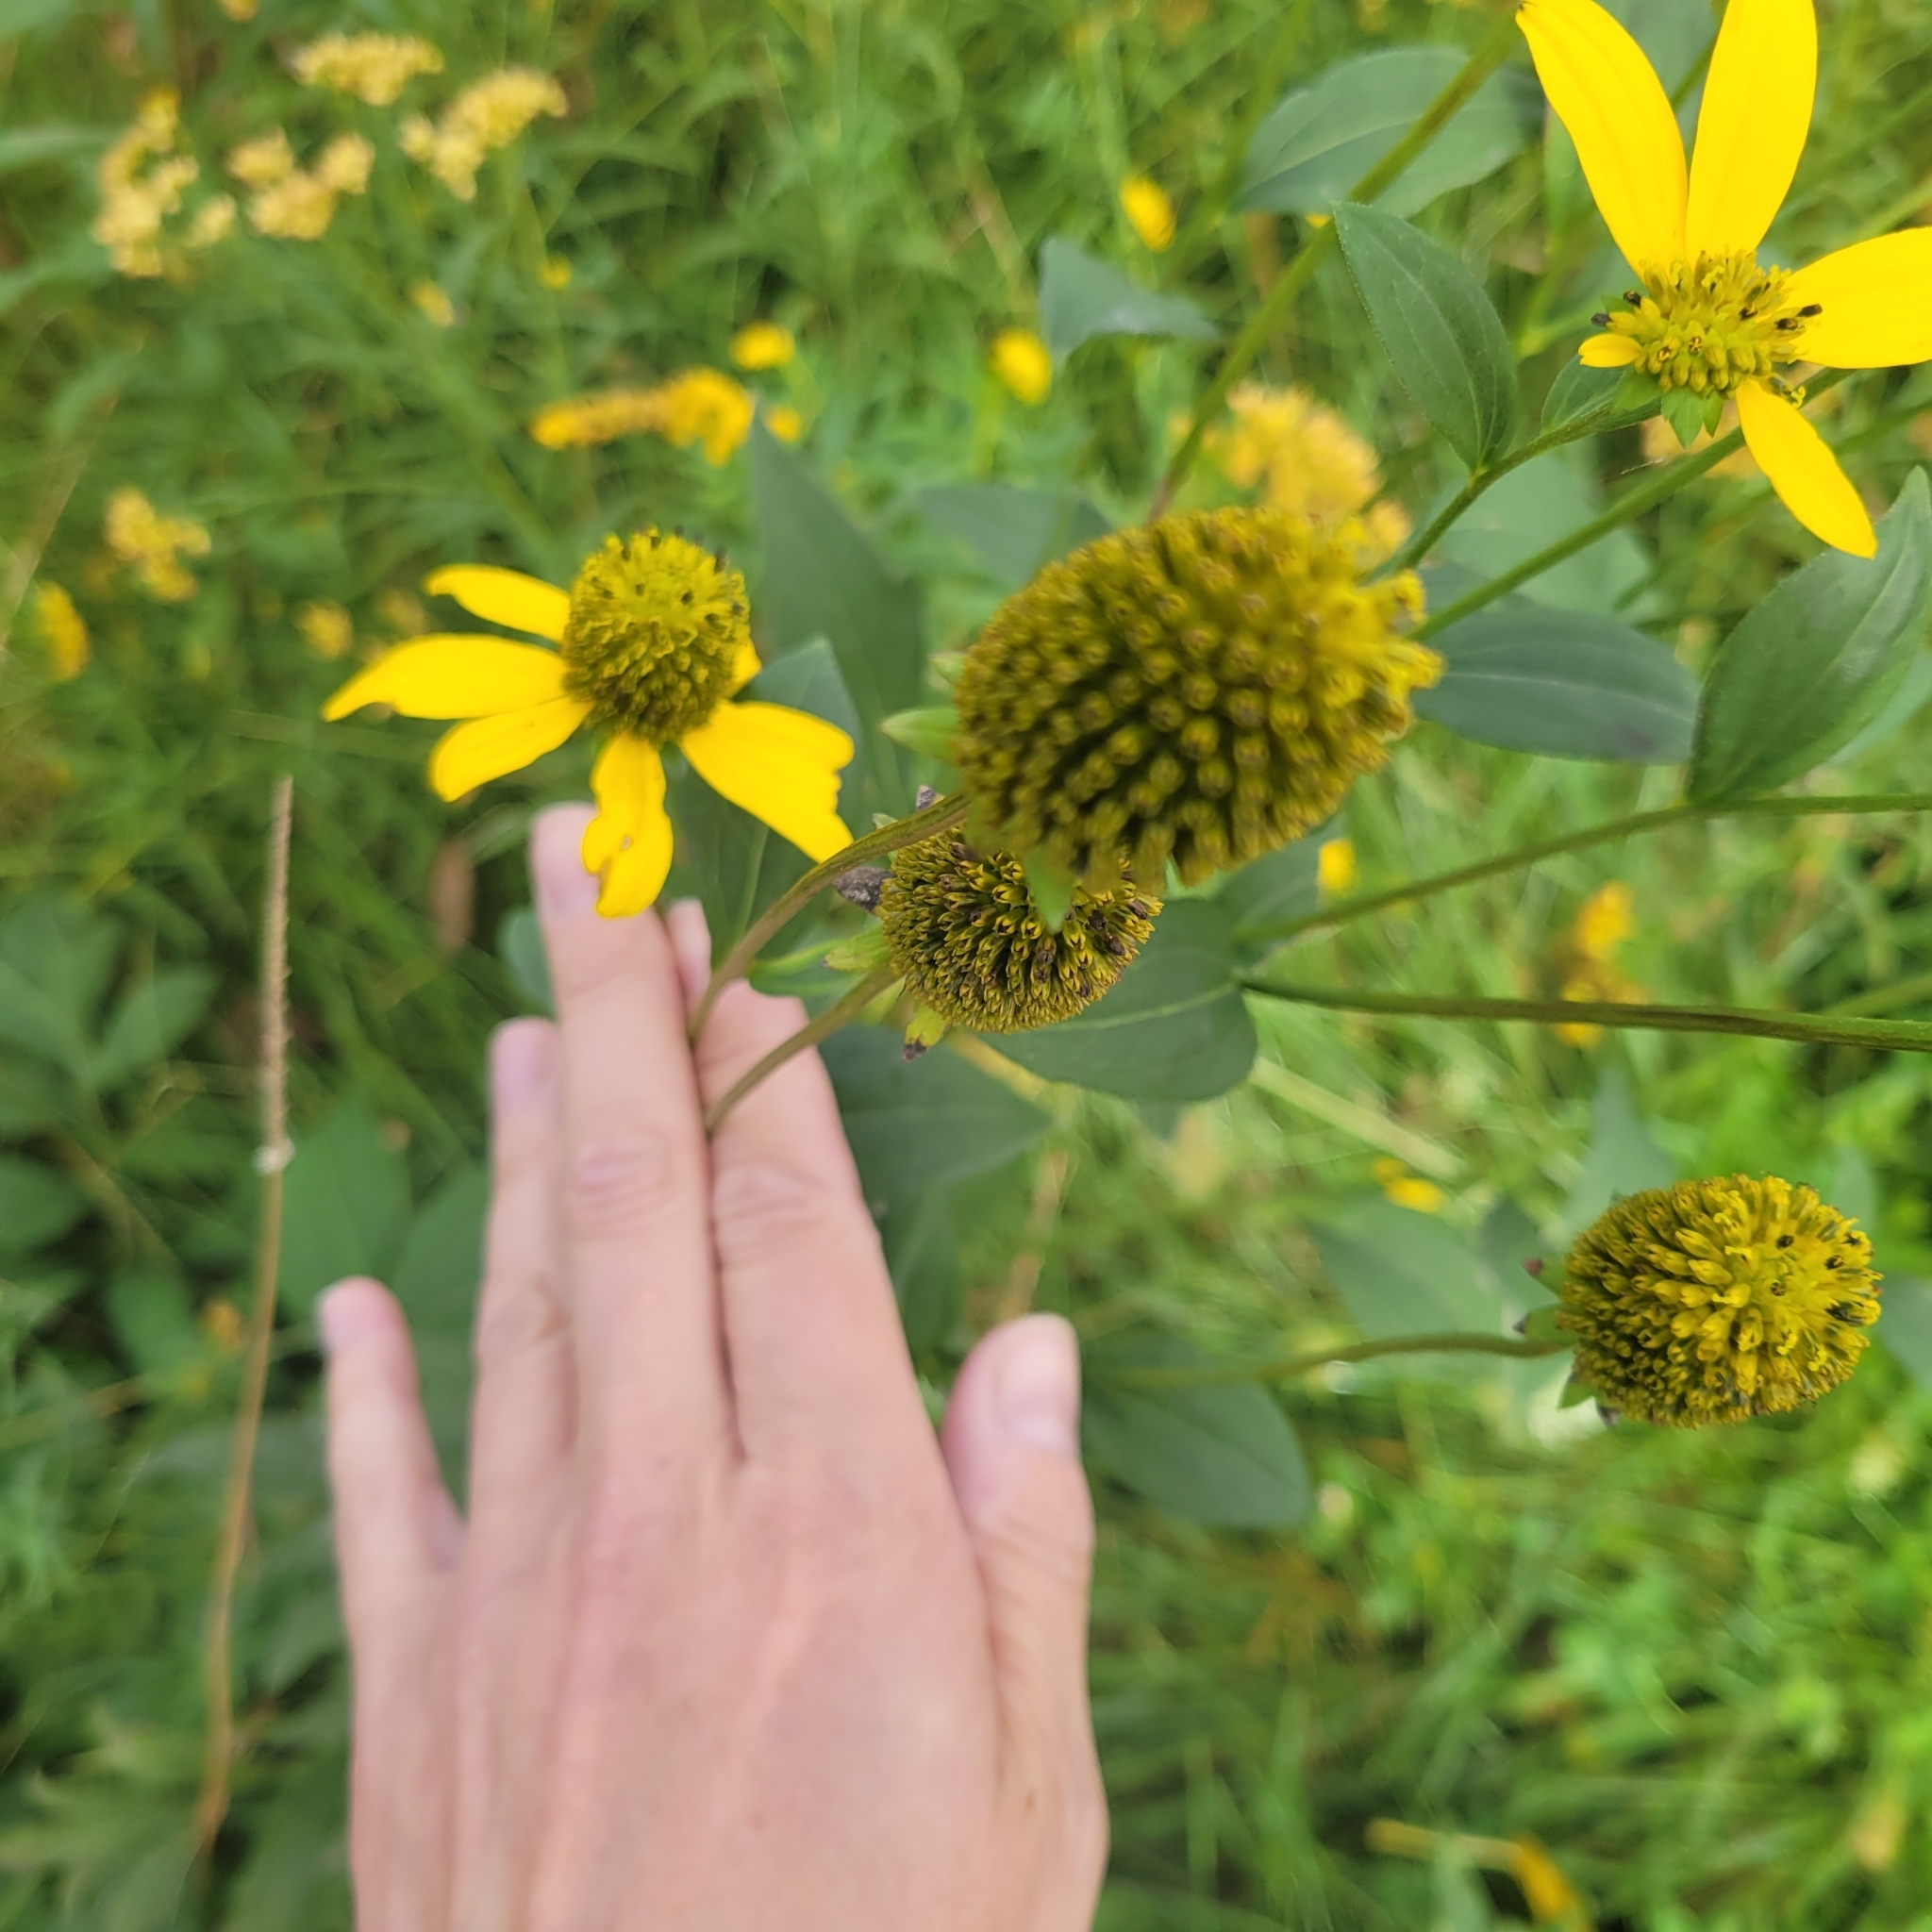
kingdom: Plantae
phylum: Tracheophyta
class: Magnoliopsida
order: Asterales
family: Asteraceae
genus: Rudbeckia
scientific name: Rudbeckia laciniata
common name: Coneflower
